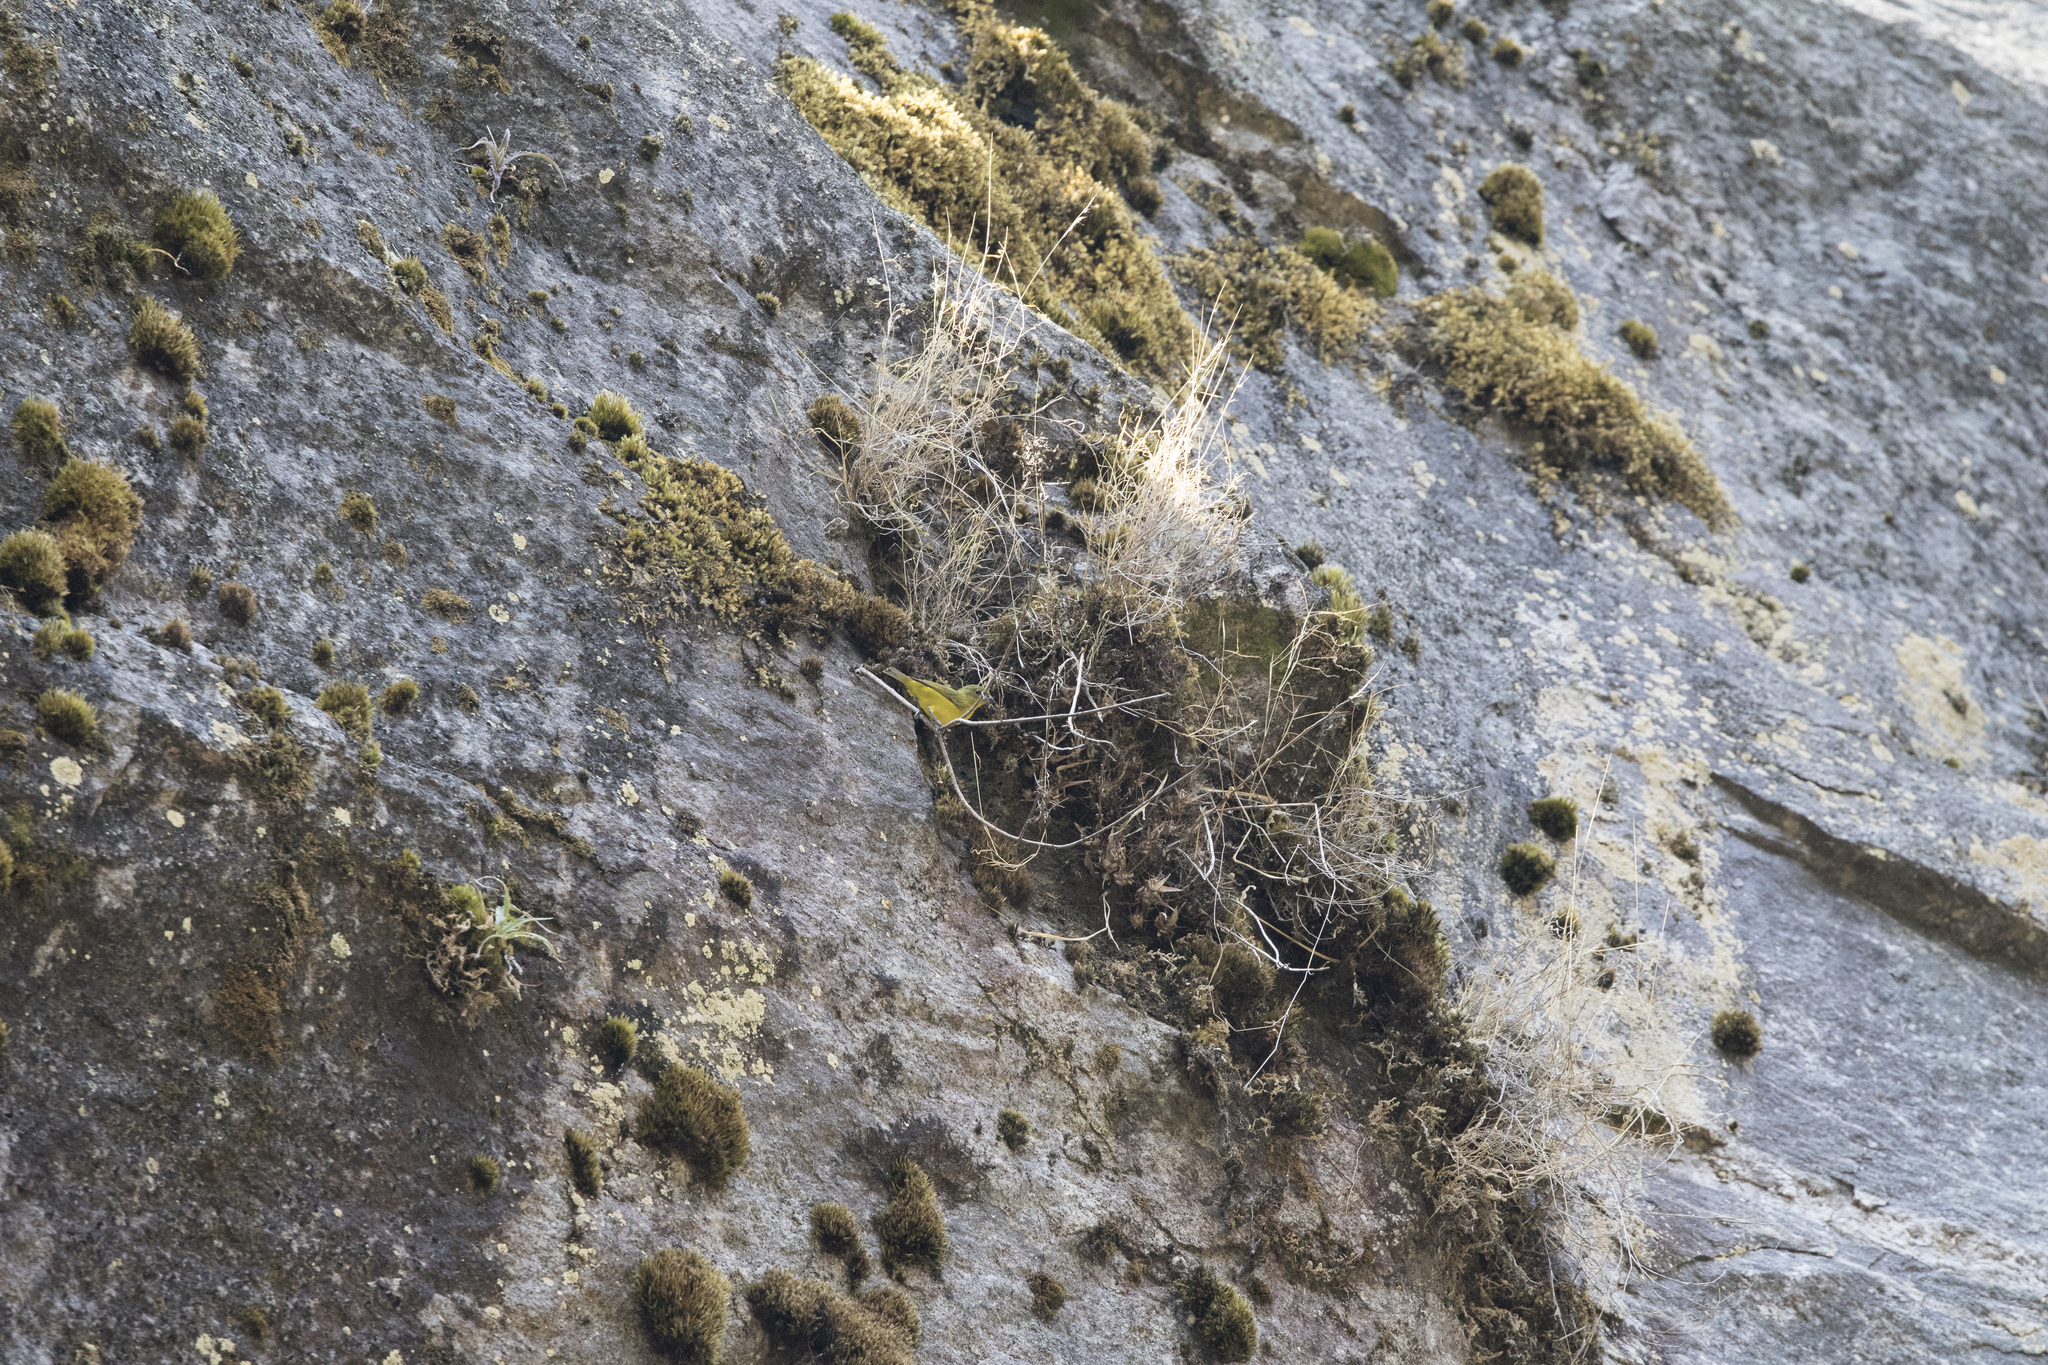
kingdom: Animalia
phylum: Chordata
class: Aves
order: Passeriformes
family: Fringillidae
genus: Euphonia
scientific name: Euphonia laniirostris
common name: Thick-billed euphonia
